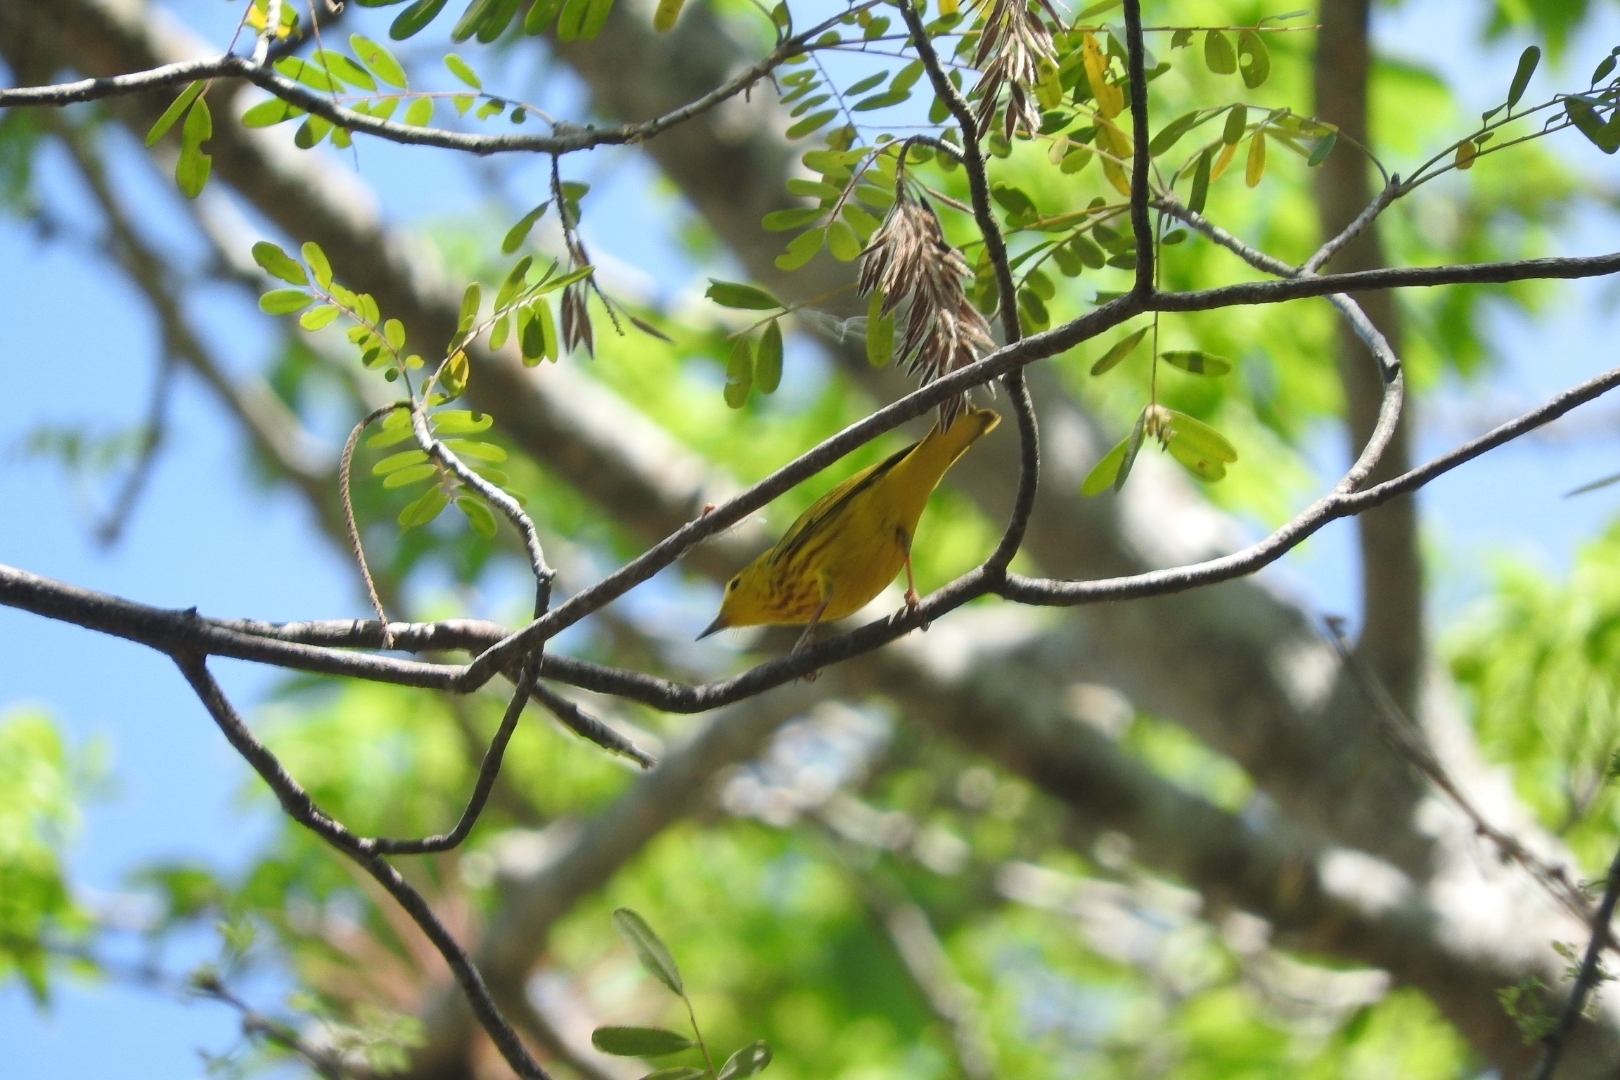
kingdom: Animalia
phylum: Chordata
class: Aves
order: Passeriformes
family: Parulidae
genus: Setophaga
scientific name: Setophaga petechia
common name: Yellow warbler
